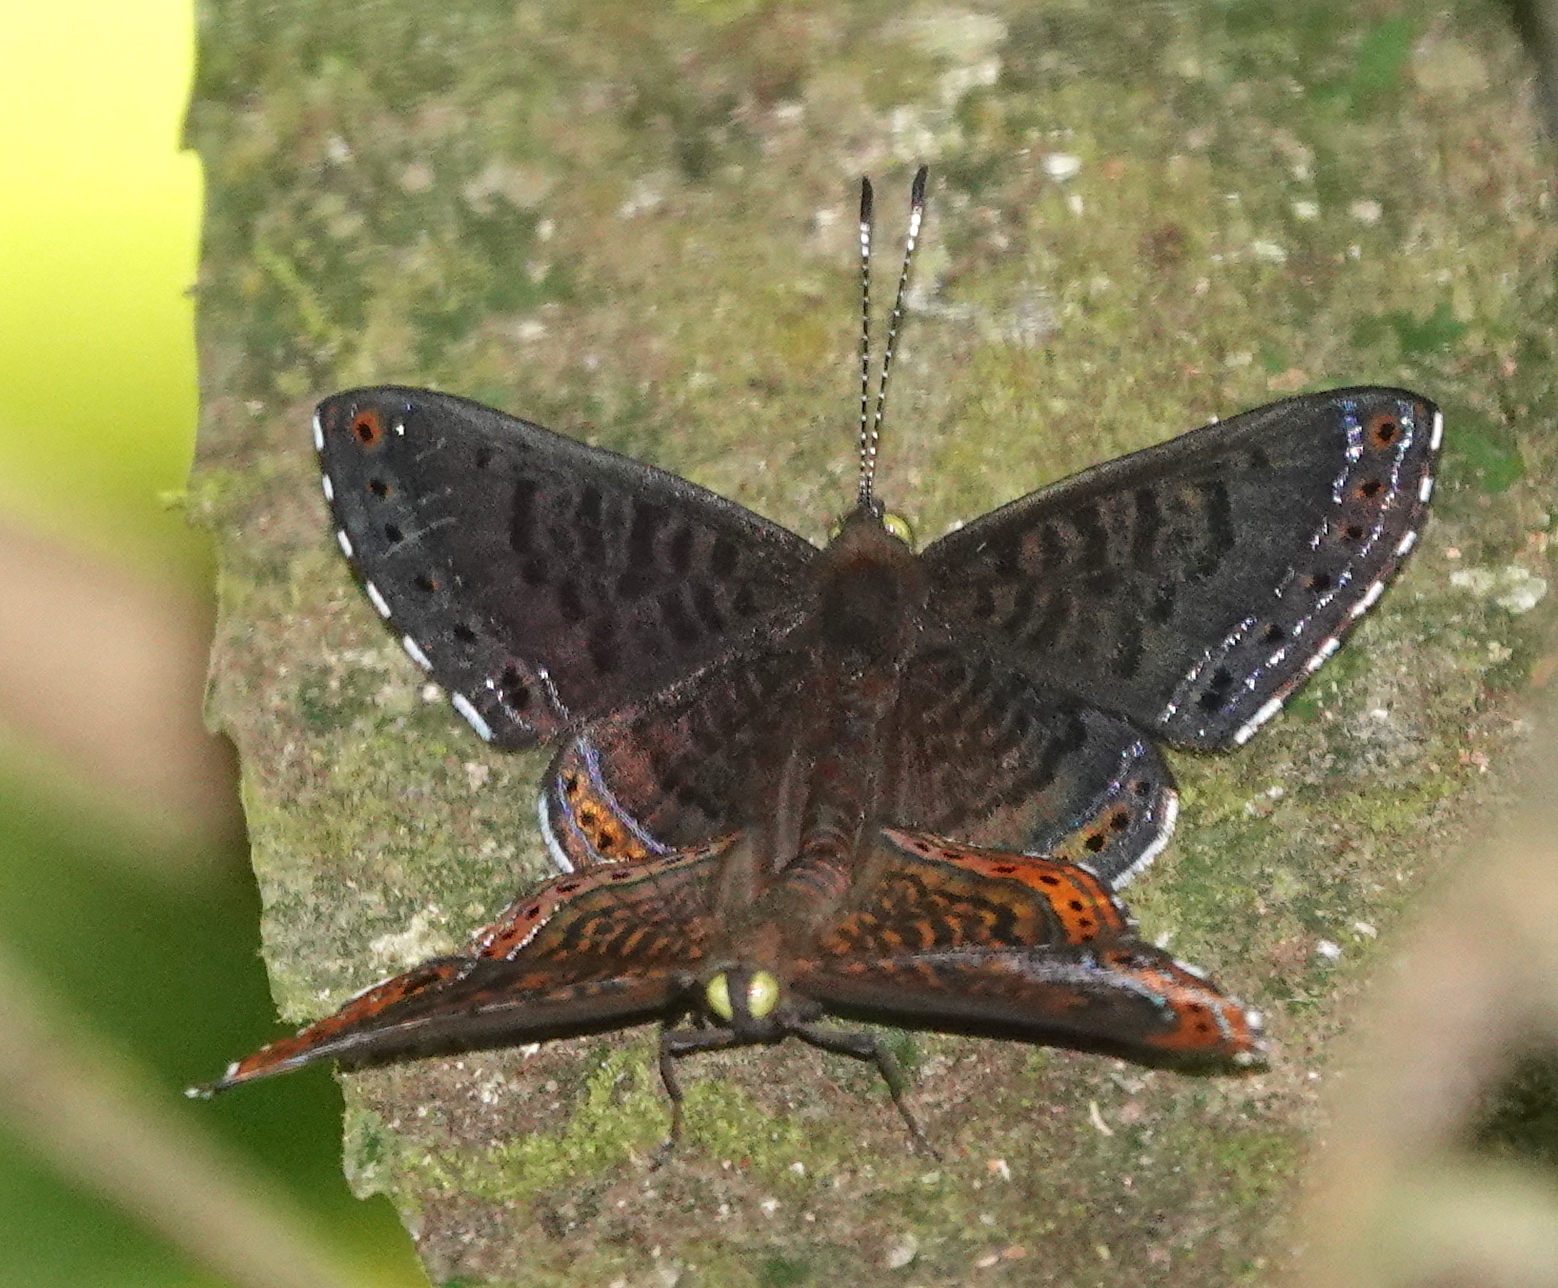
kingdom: Animalia
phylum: Arthropoda
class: Insecta
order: Lepidoptera
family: Riodinidae
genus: Detritivora
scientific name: Detritivora
